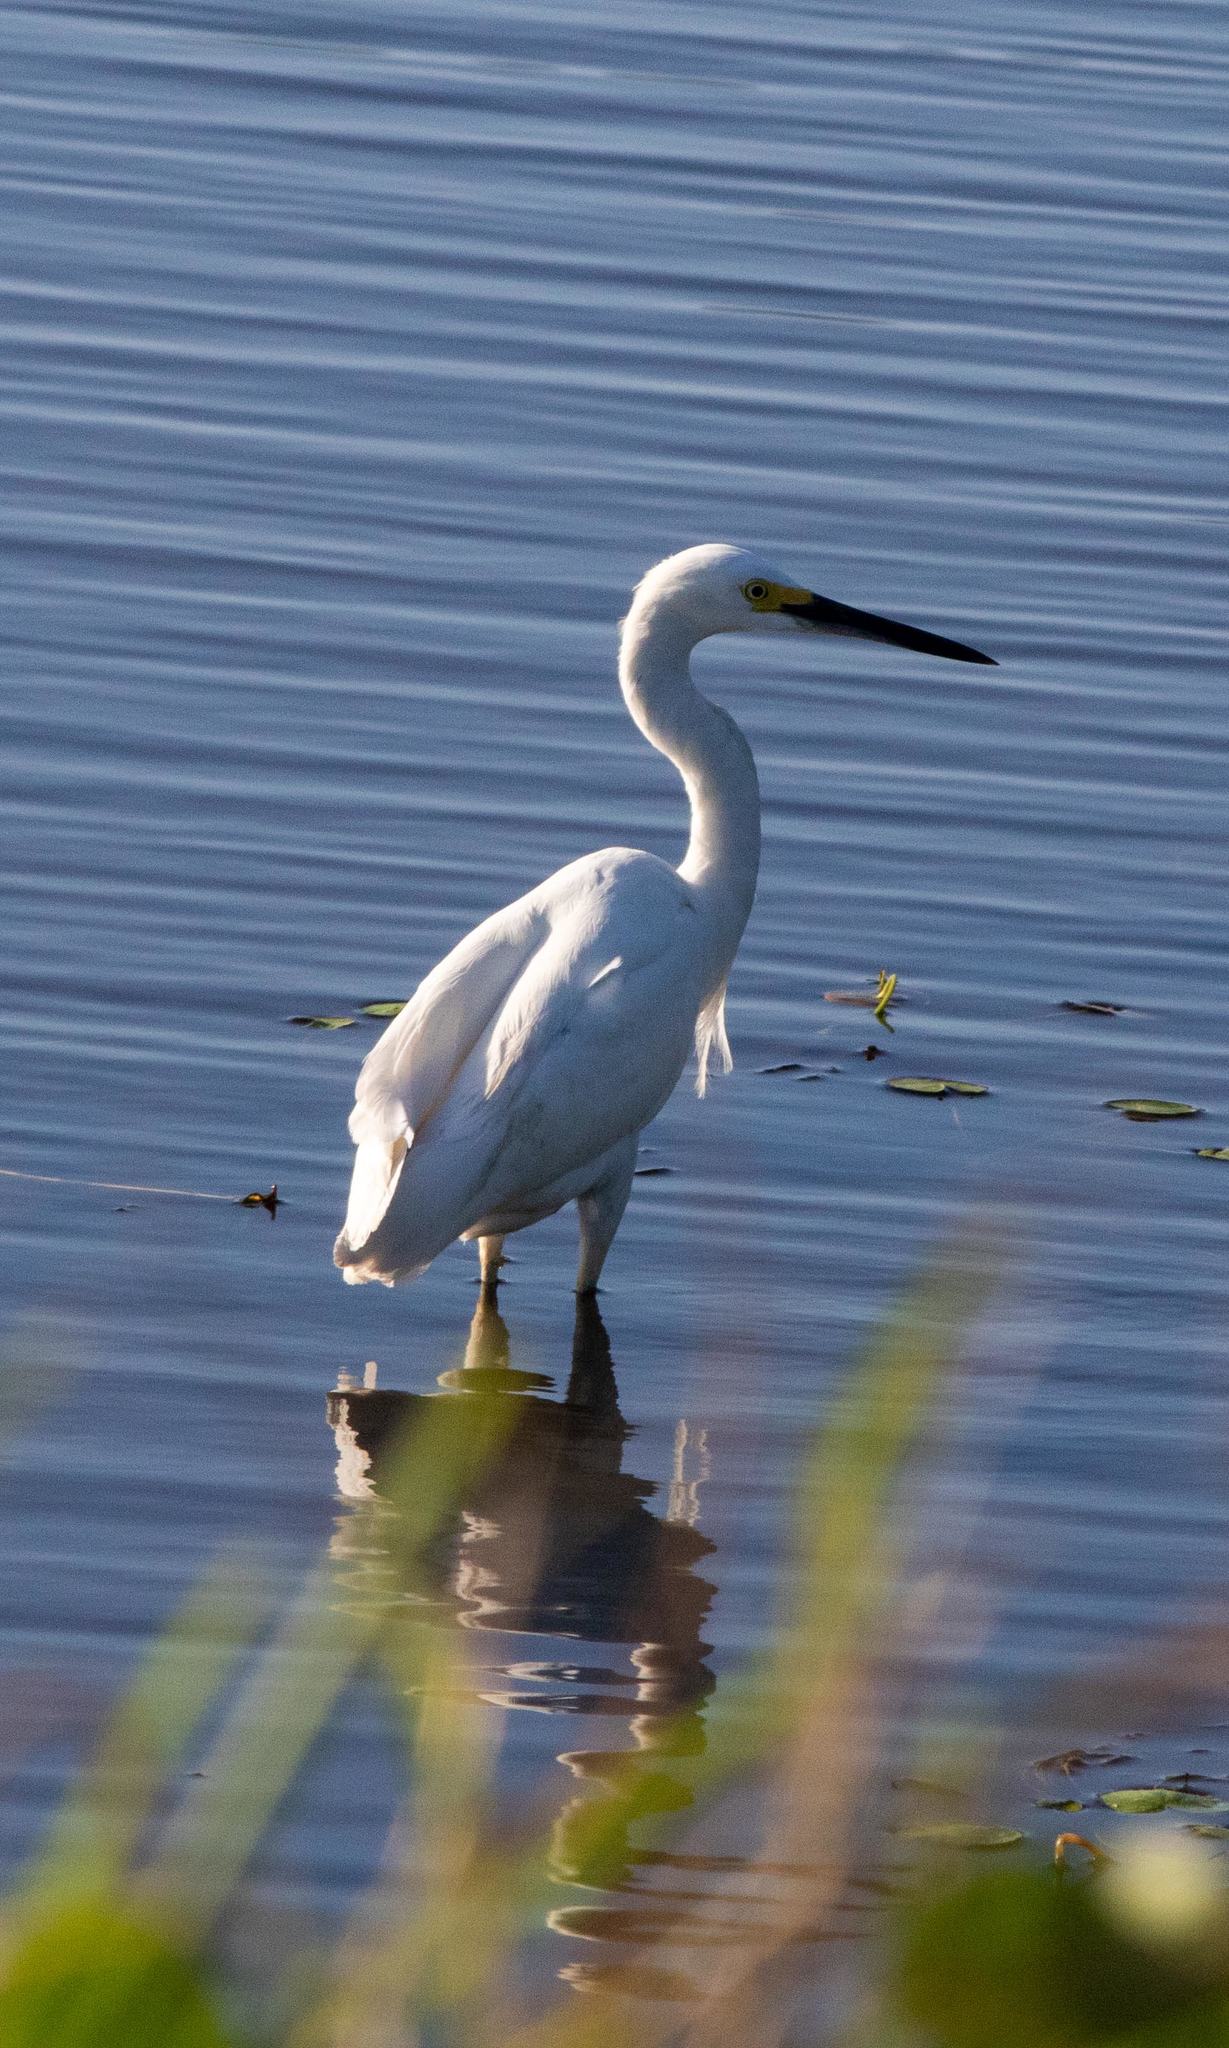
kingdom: Animalia
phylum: Chordata
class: Aves
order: Pelecaniformes
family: Ardeidae
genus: Egretta
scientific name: Egretta thula
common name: Snowy egret
